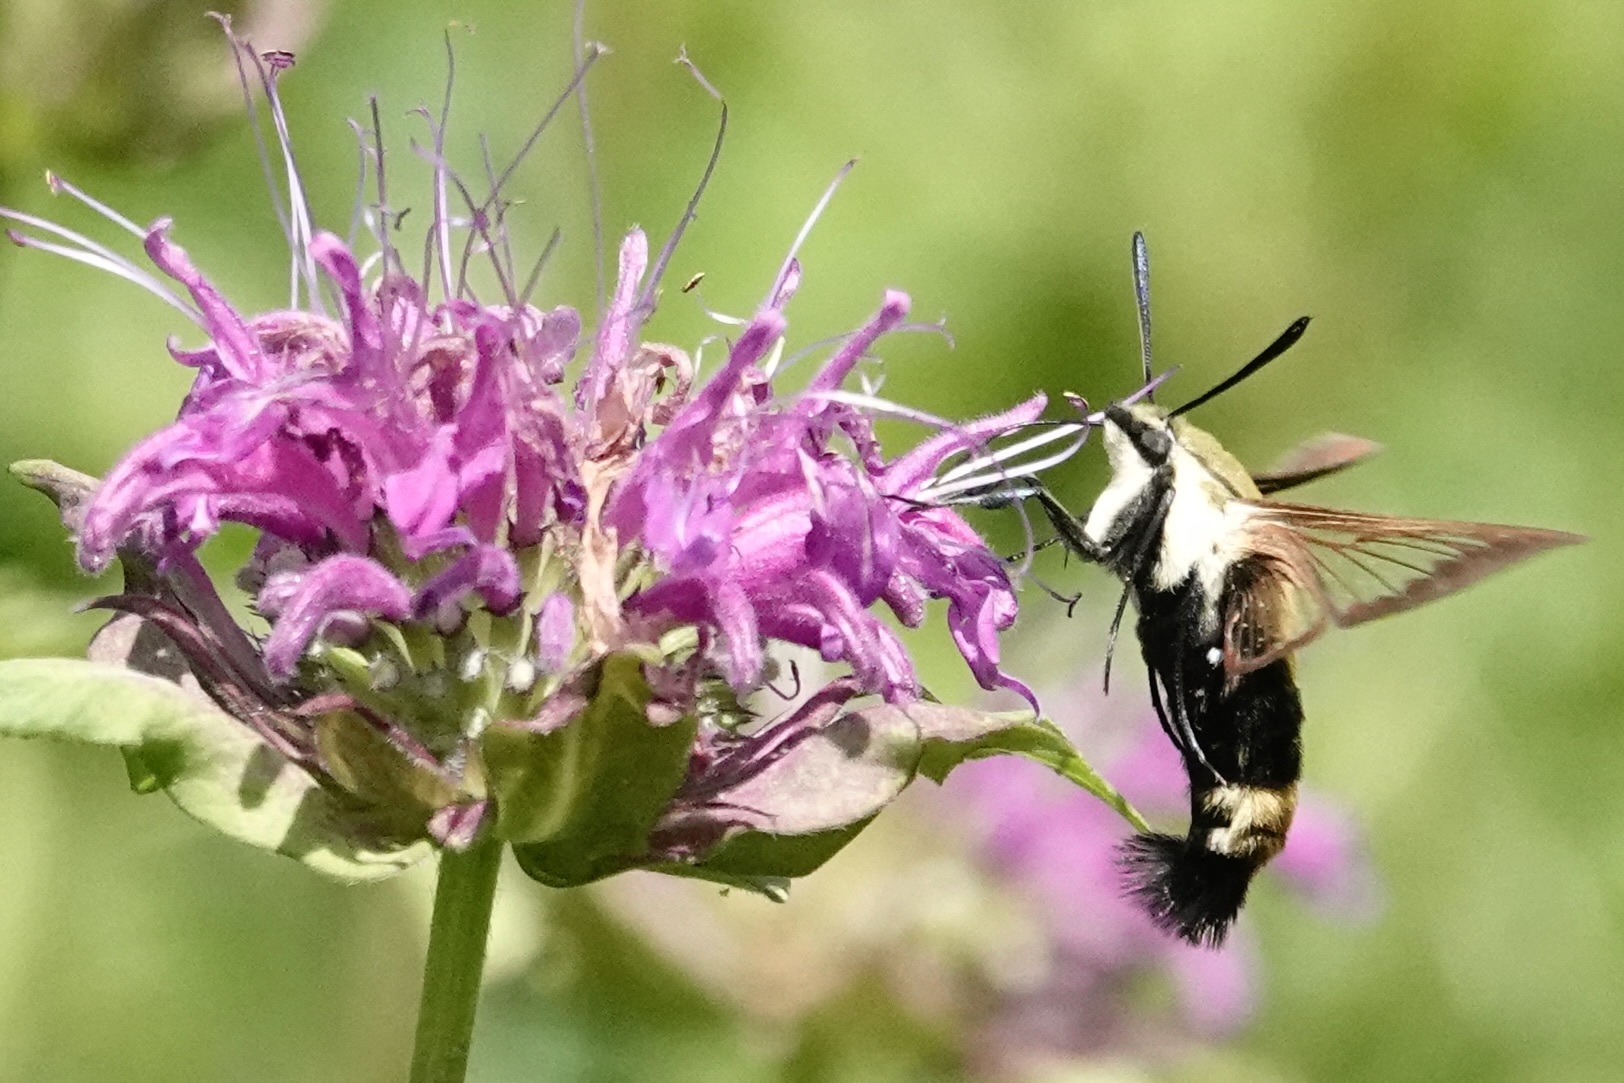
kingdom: Animalia
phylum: Arthropoda
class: Insecta
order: Lepidoptera
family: Sphingidae
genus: Hemaris
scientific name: Hemaris diffinis
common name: Bumblebee moth
